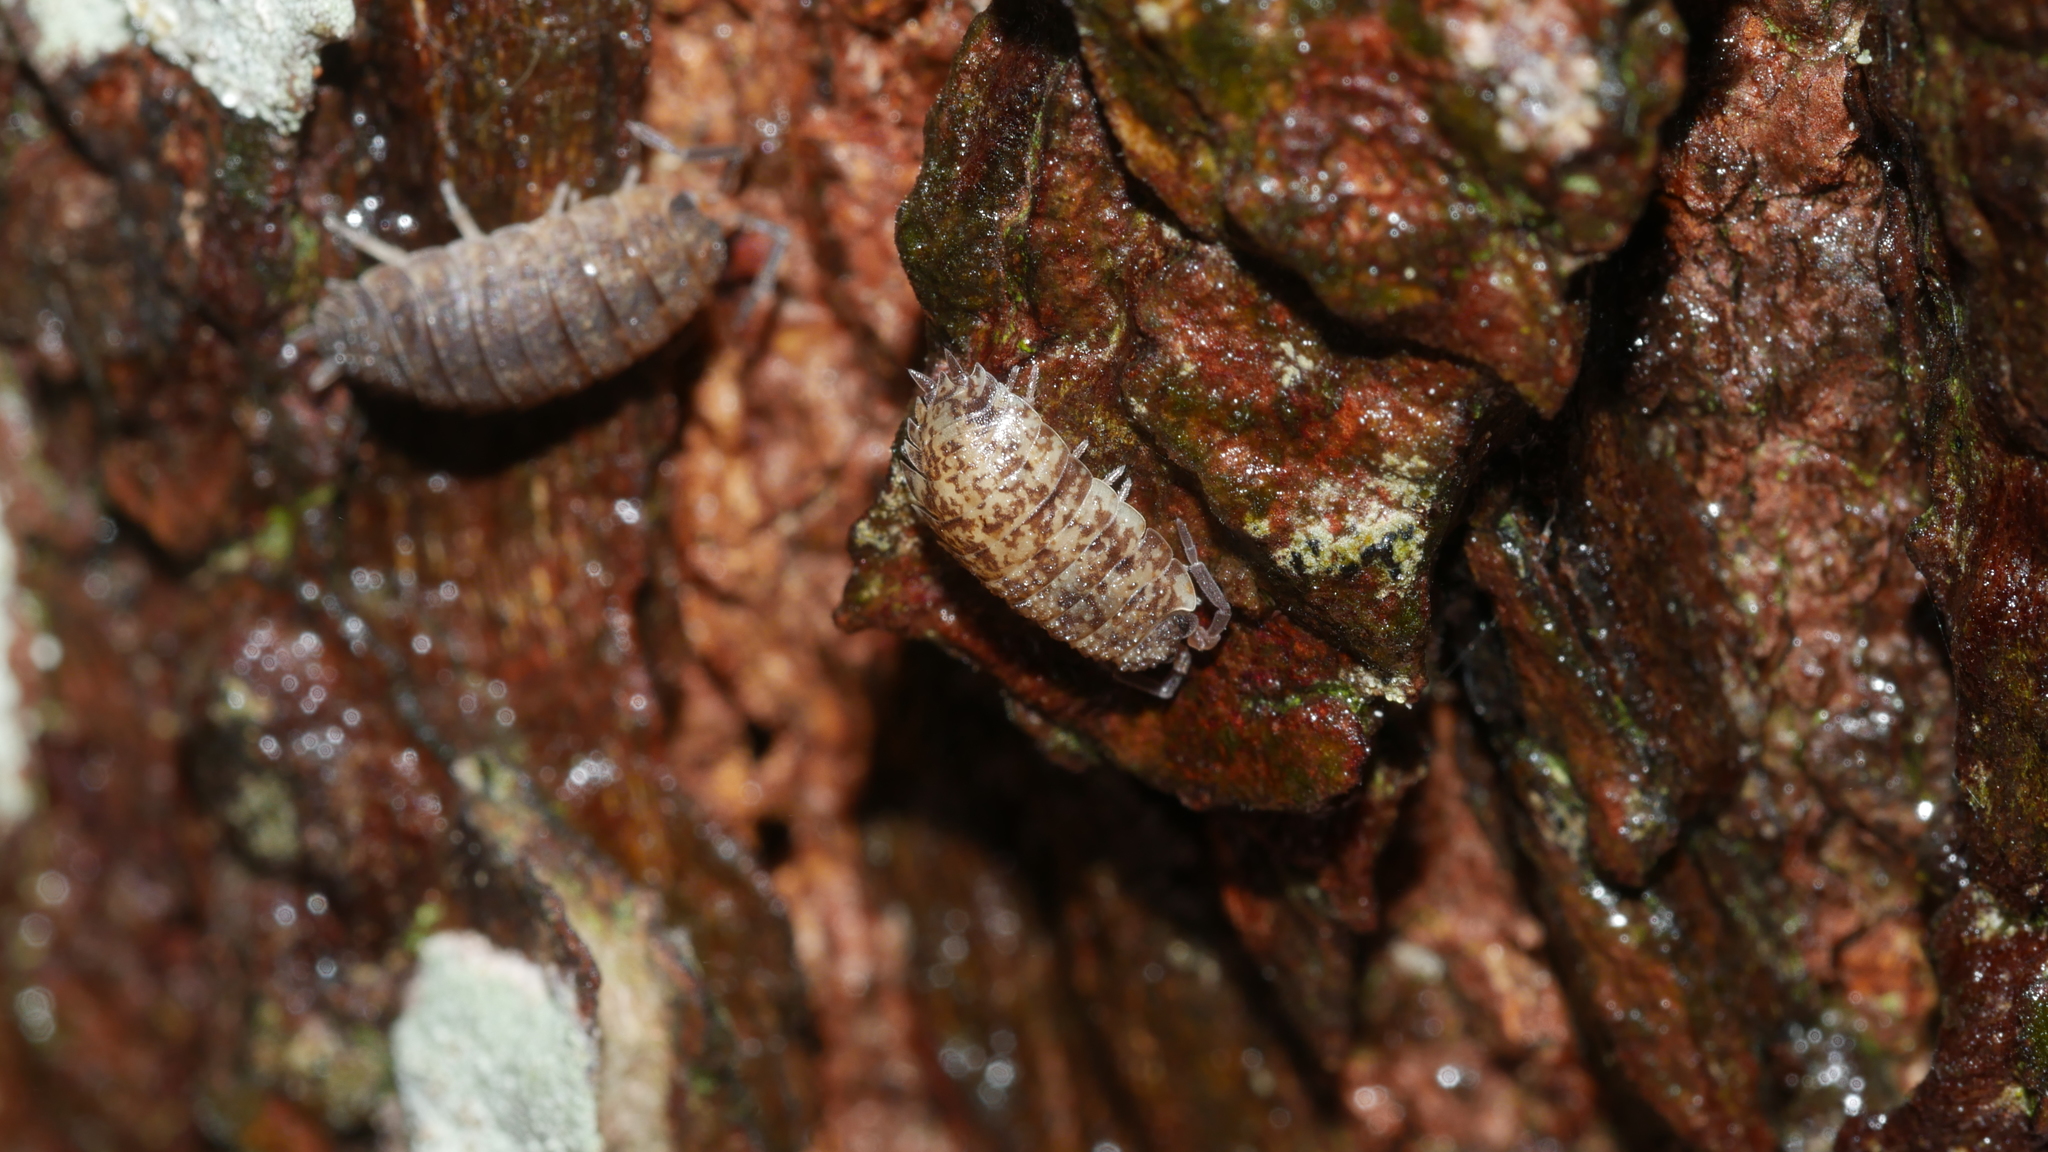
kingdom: Animalia
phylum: Arthropoda
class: Malacostraca
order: Isopoda
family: Porcellionidae
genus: Porcellio
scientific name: Porcellio scaber
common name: Common rough woodlouse
